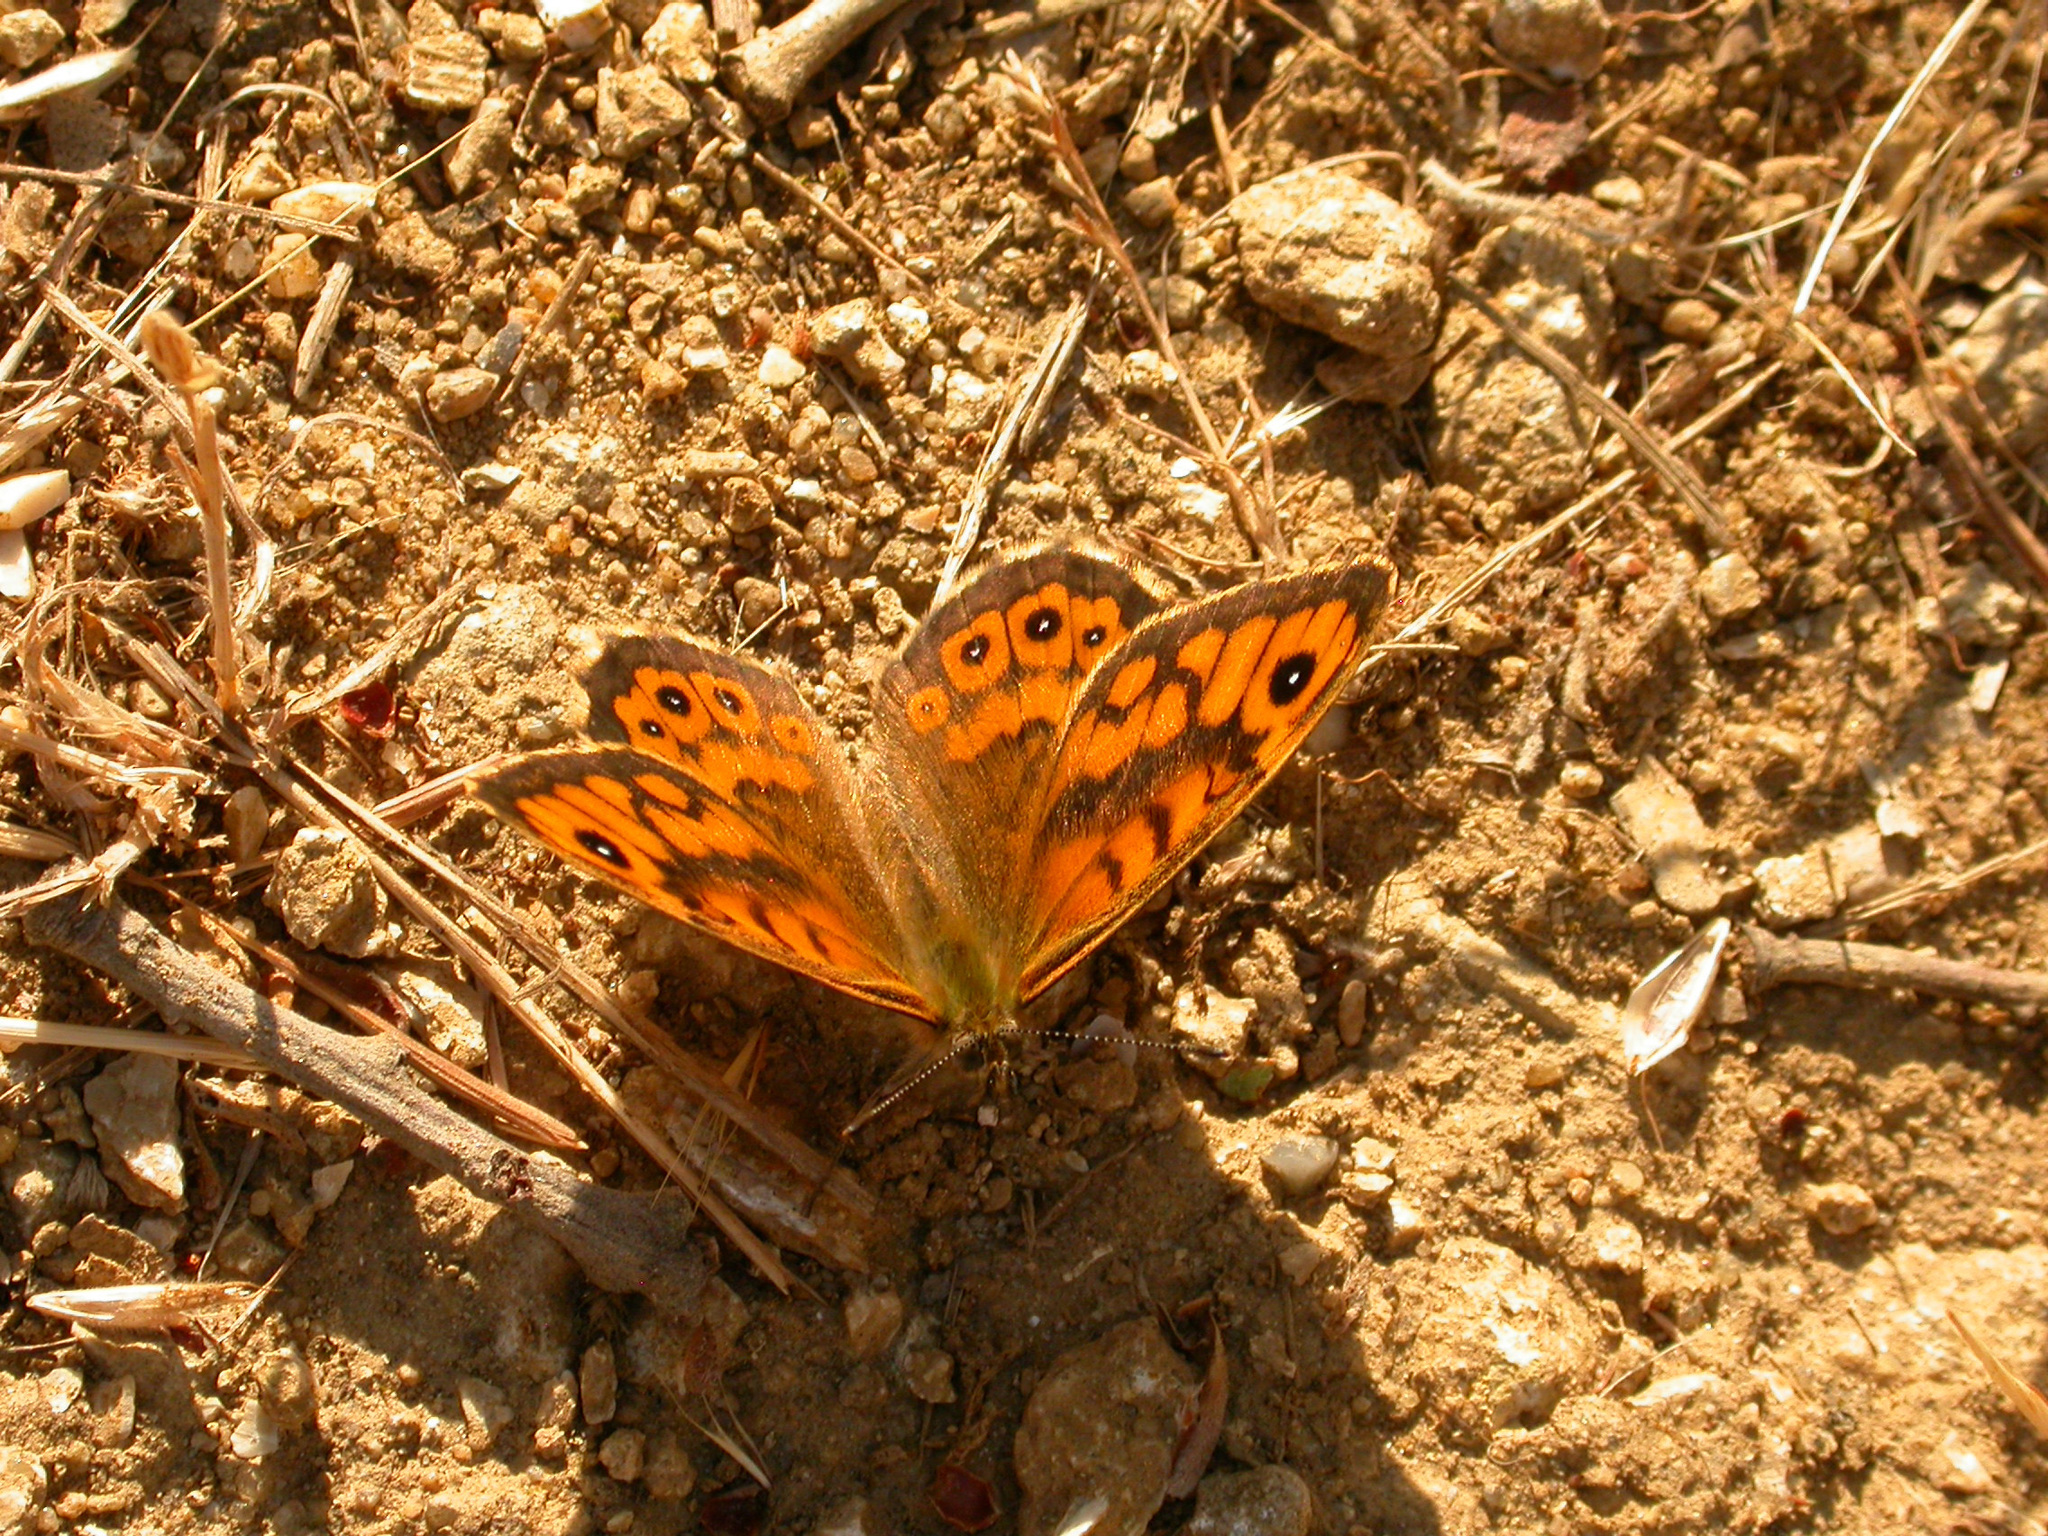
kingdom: Animalia
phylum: Arthropoda
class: Insecta
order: Lepidoptera
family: Nymphalidae
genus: Pararge
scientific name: Pararge Lasiommata megera
